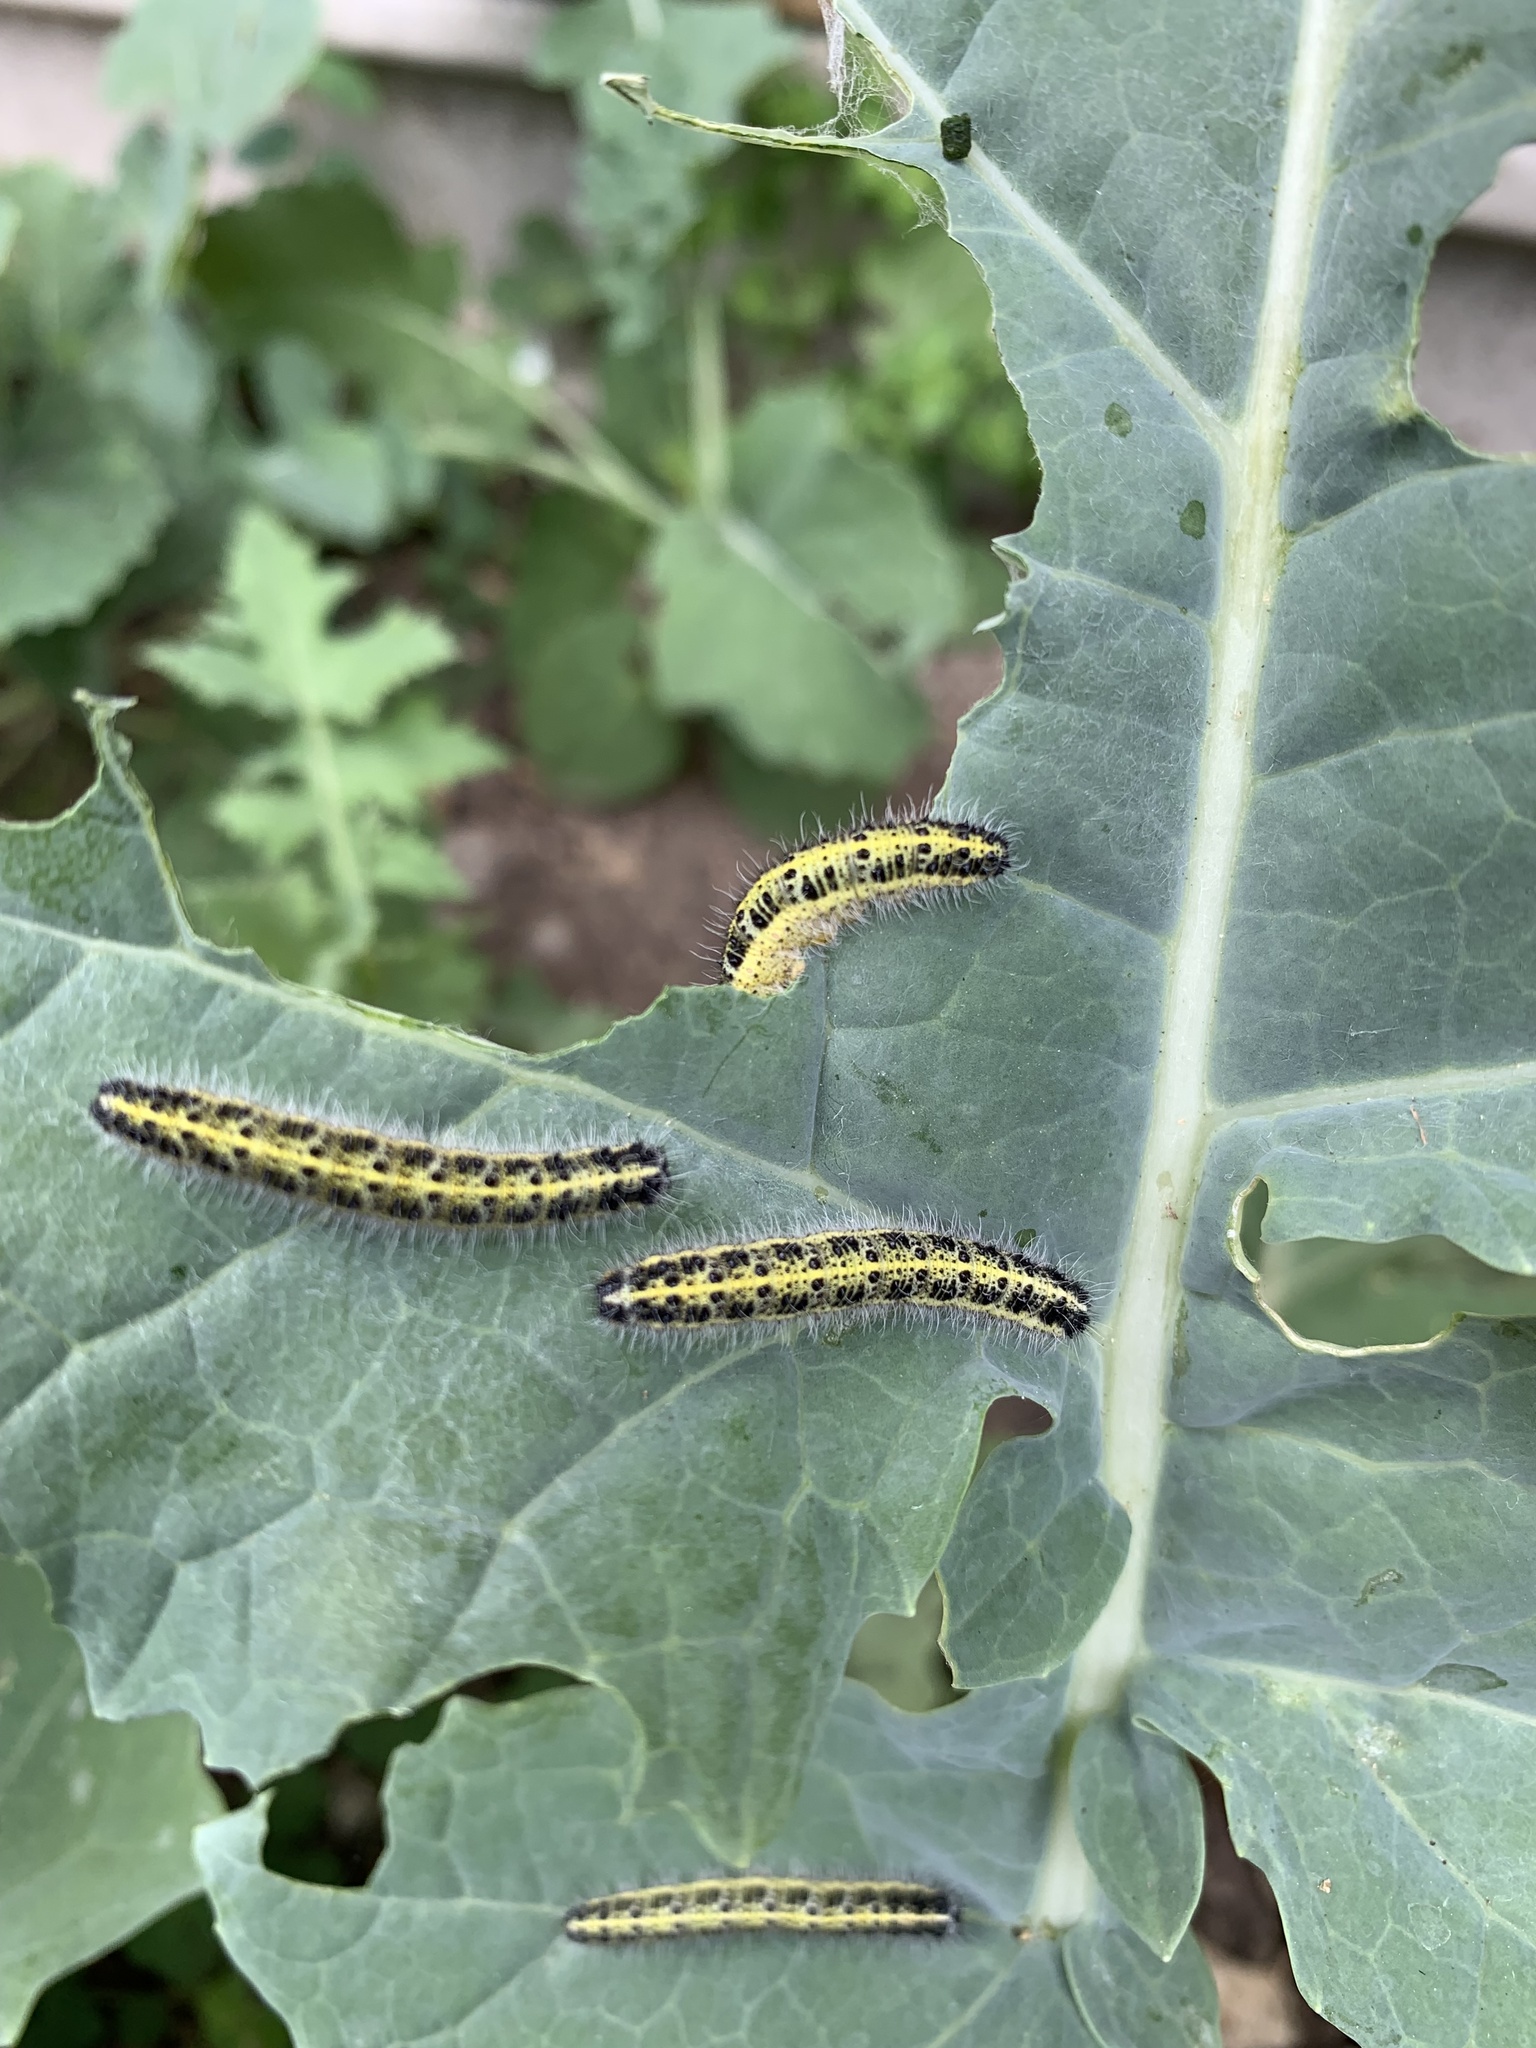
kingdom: Animalia
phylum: Arthropoda
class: Insecta
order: Lepidoptera
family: Pieridae
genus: Pieris
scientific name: Pieris brassicae
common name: Large white
